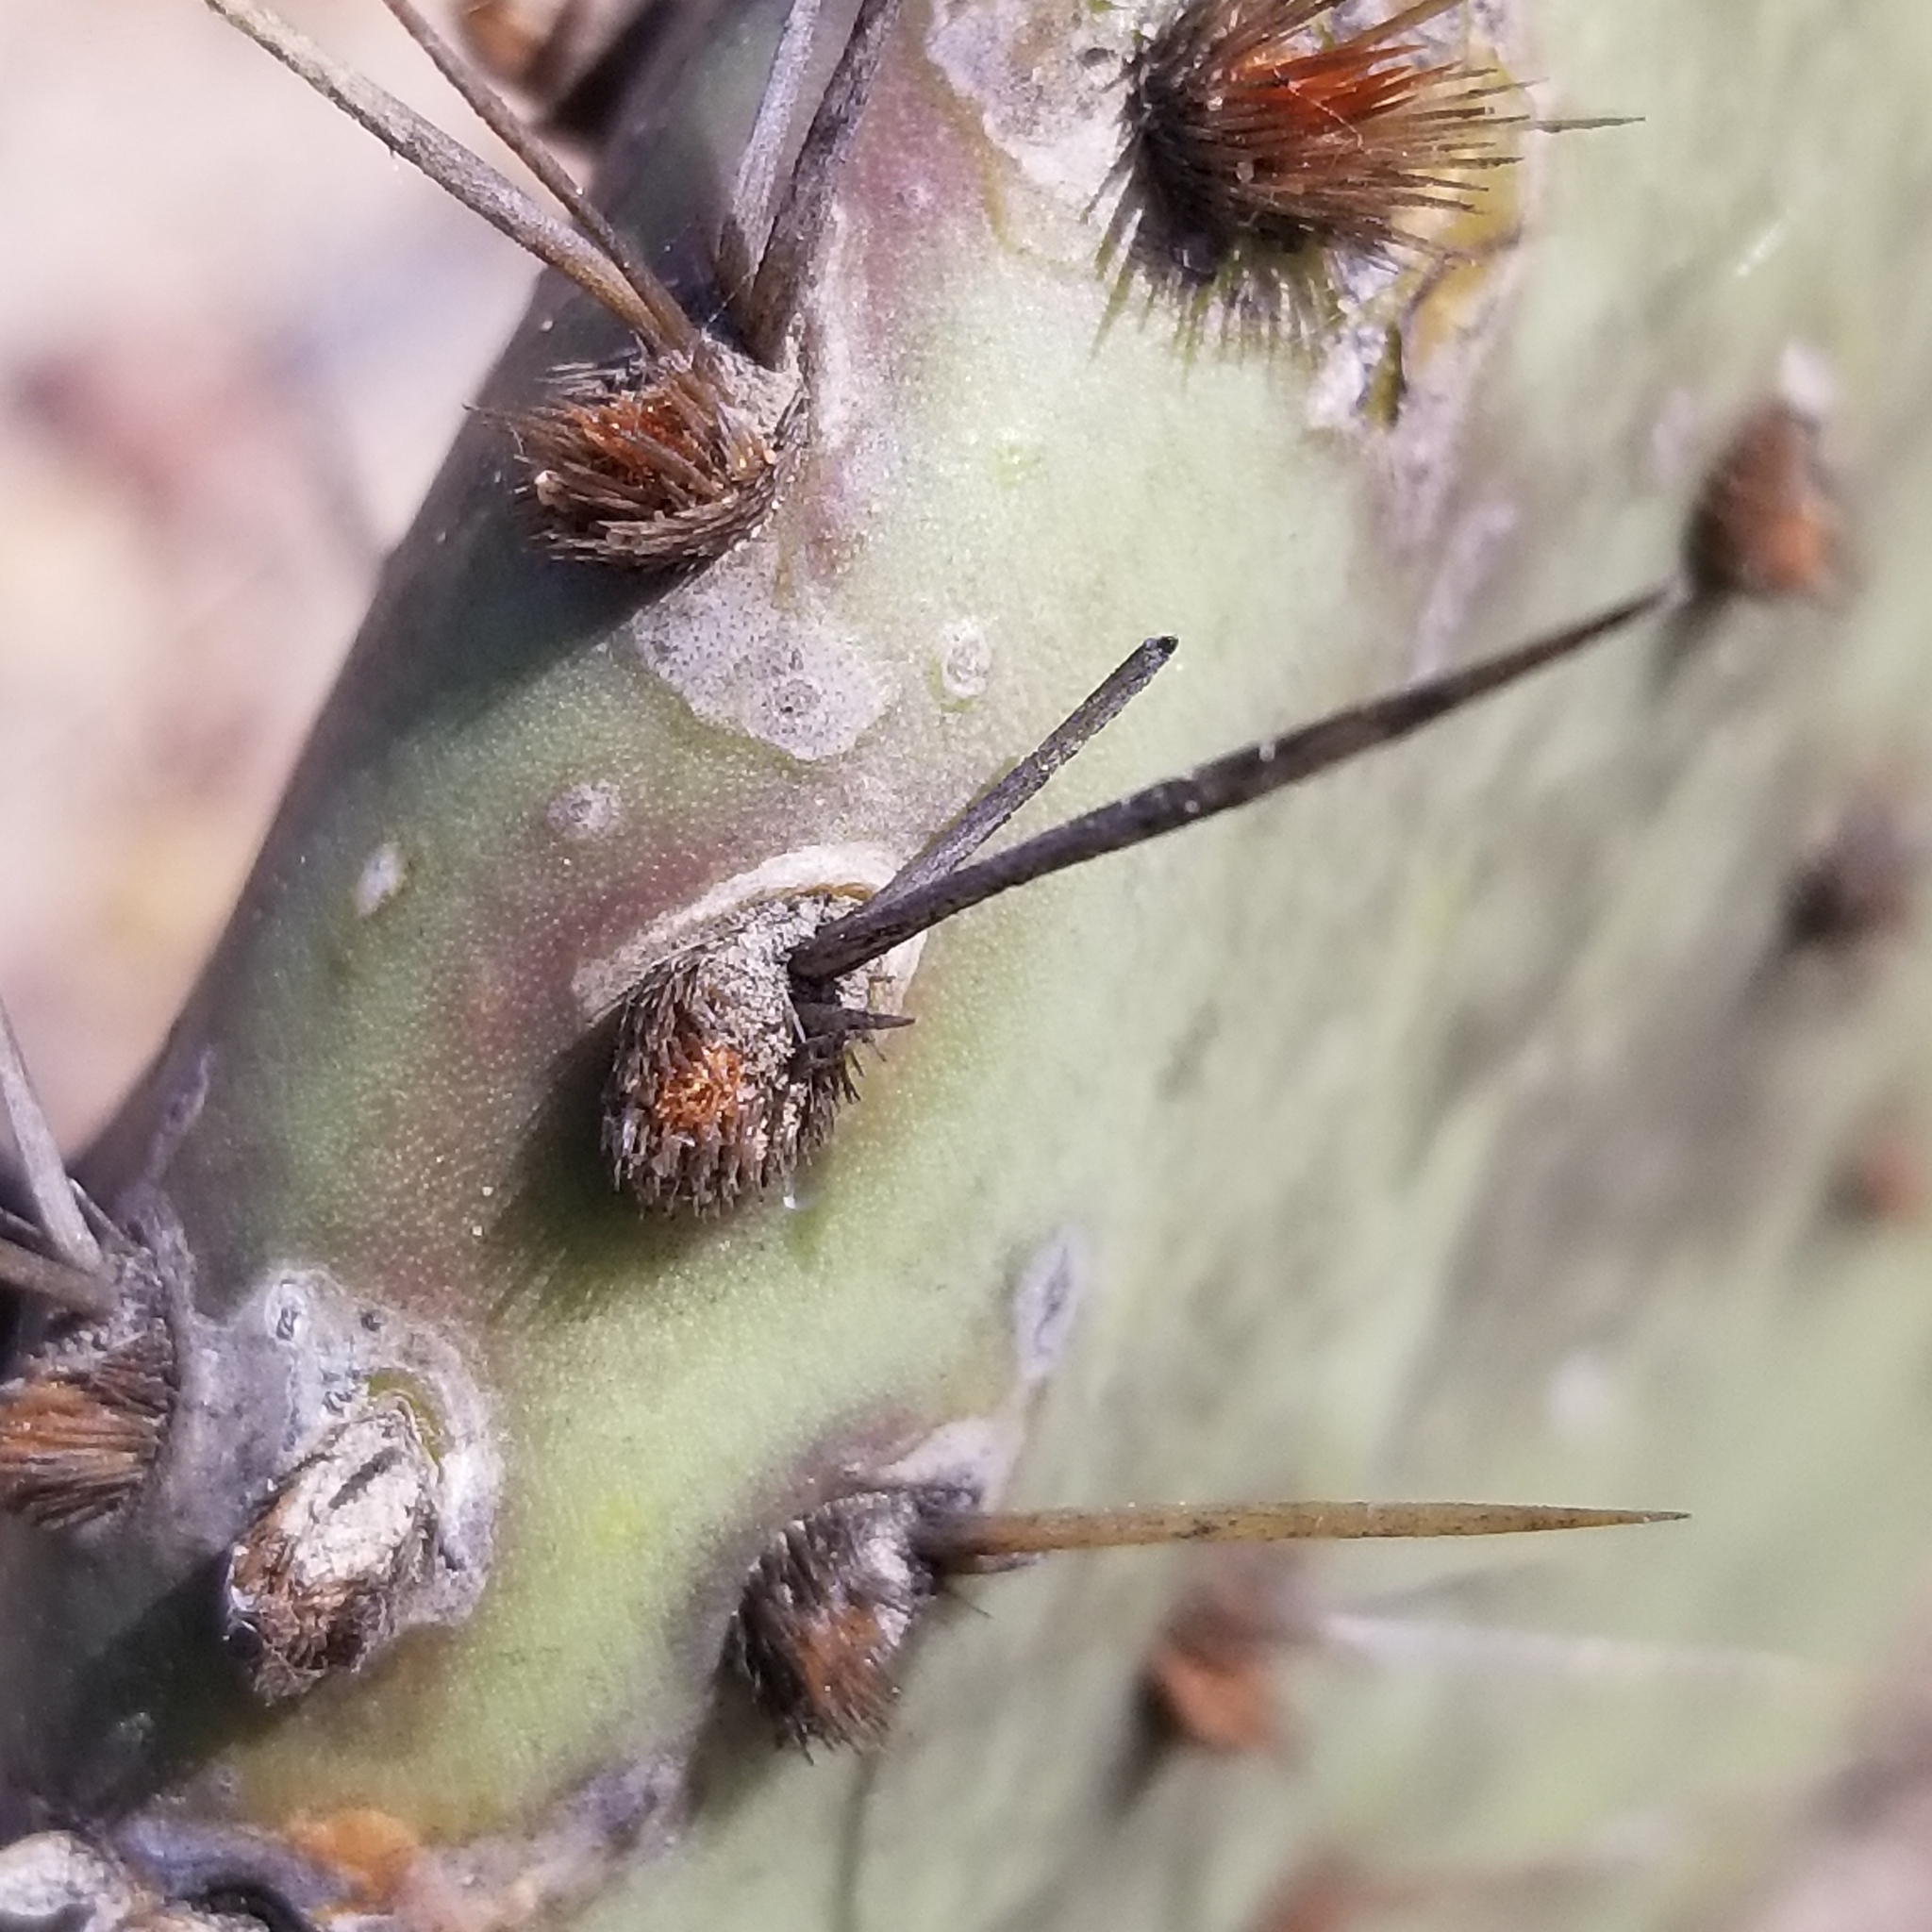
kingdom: Plantae
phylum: Tracheophyta
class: Magnoliopsida
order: Caryophyllales
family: Cactaceae
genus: Opuntia
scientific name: Opuntia littoralis
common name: Coastal prickly-pear
